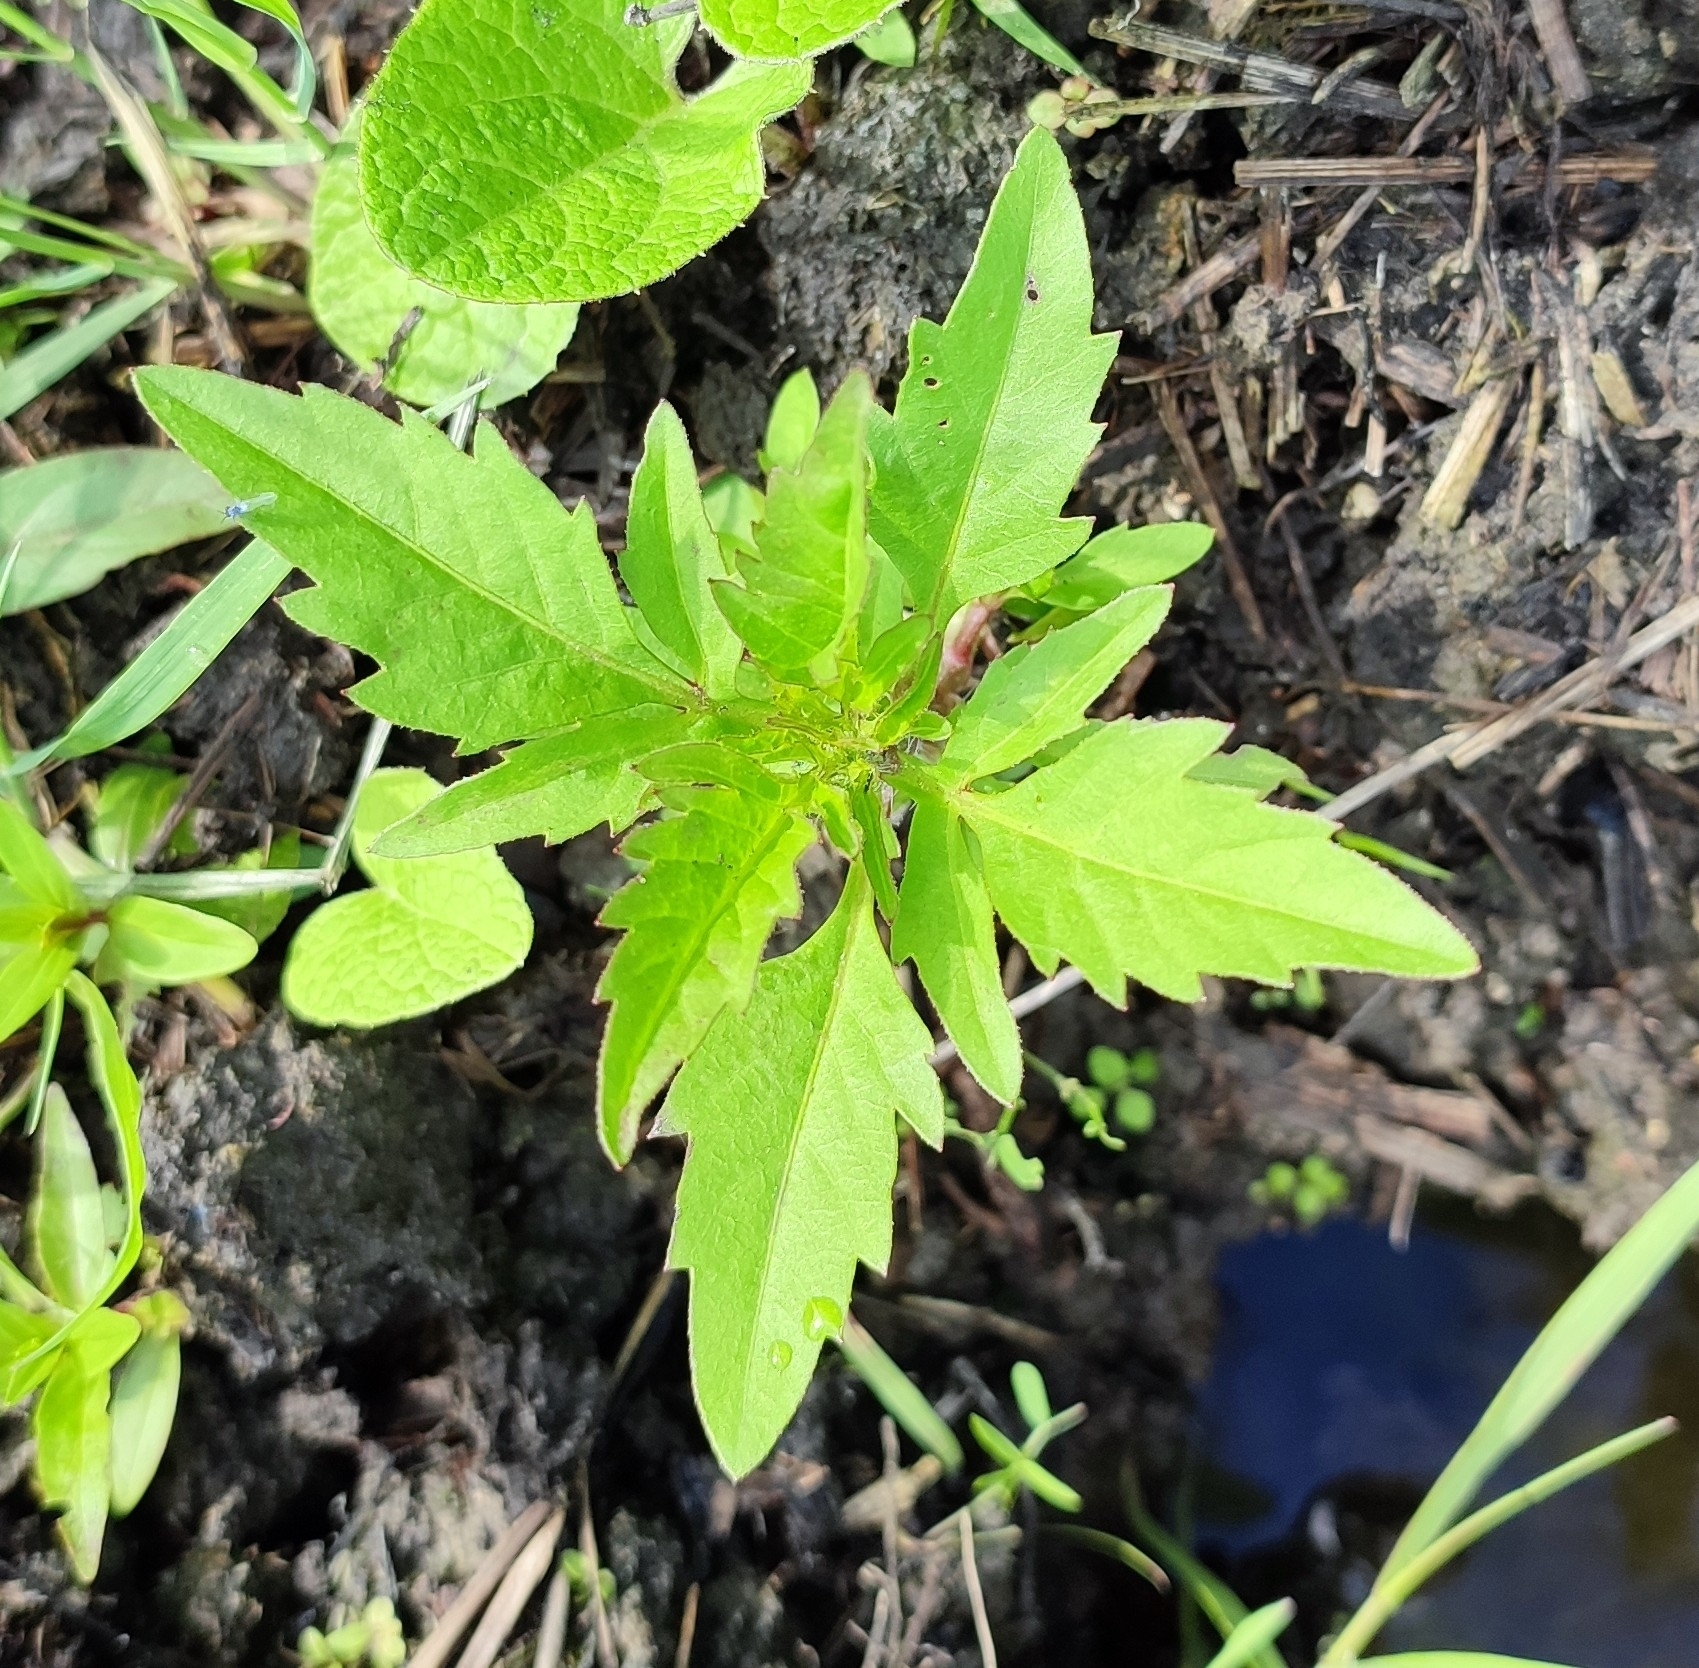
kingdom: Plantae
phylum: Tracheophyta
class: Magnoliopsida
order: Asterales
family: Asteraceae
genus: Bidens
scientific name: Bidens tripartita
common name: Trifid bur-marigold
